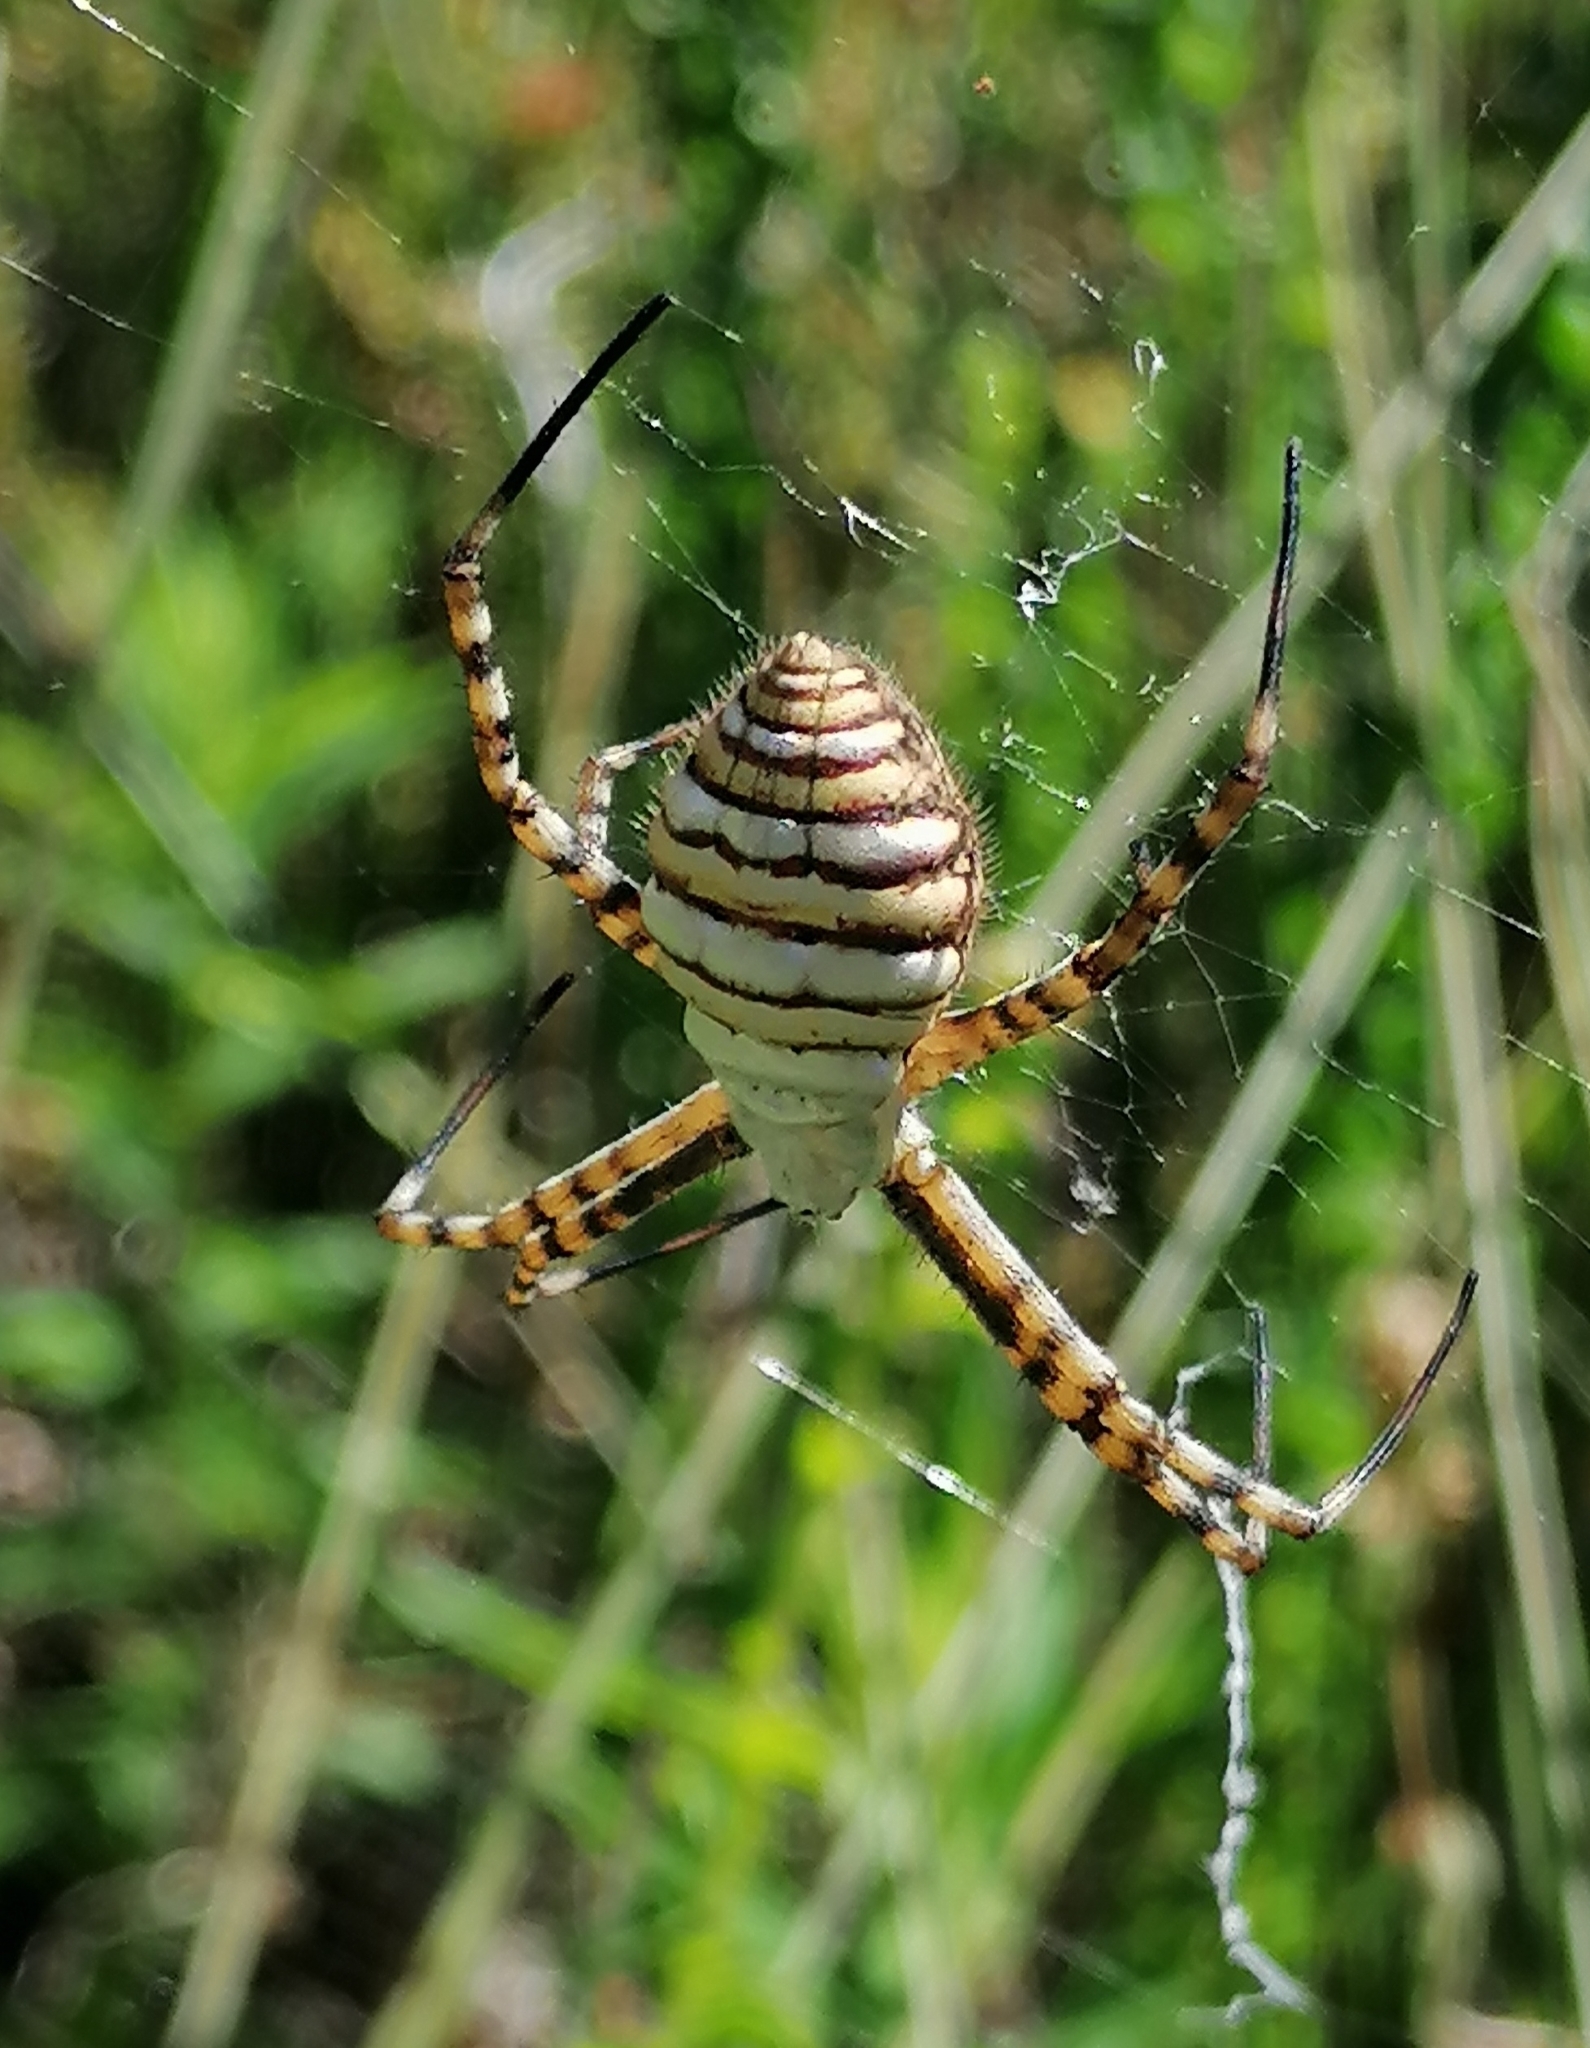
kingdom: Animalia
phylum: Arthropoda
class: Arachnida
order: Araneae
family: Araneidae
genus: Argiope
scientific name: Argiope trifasciata
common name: Banded garden spider
